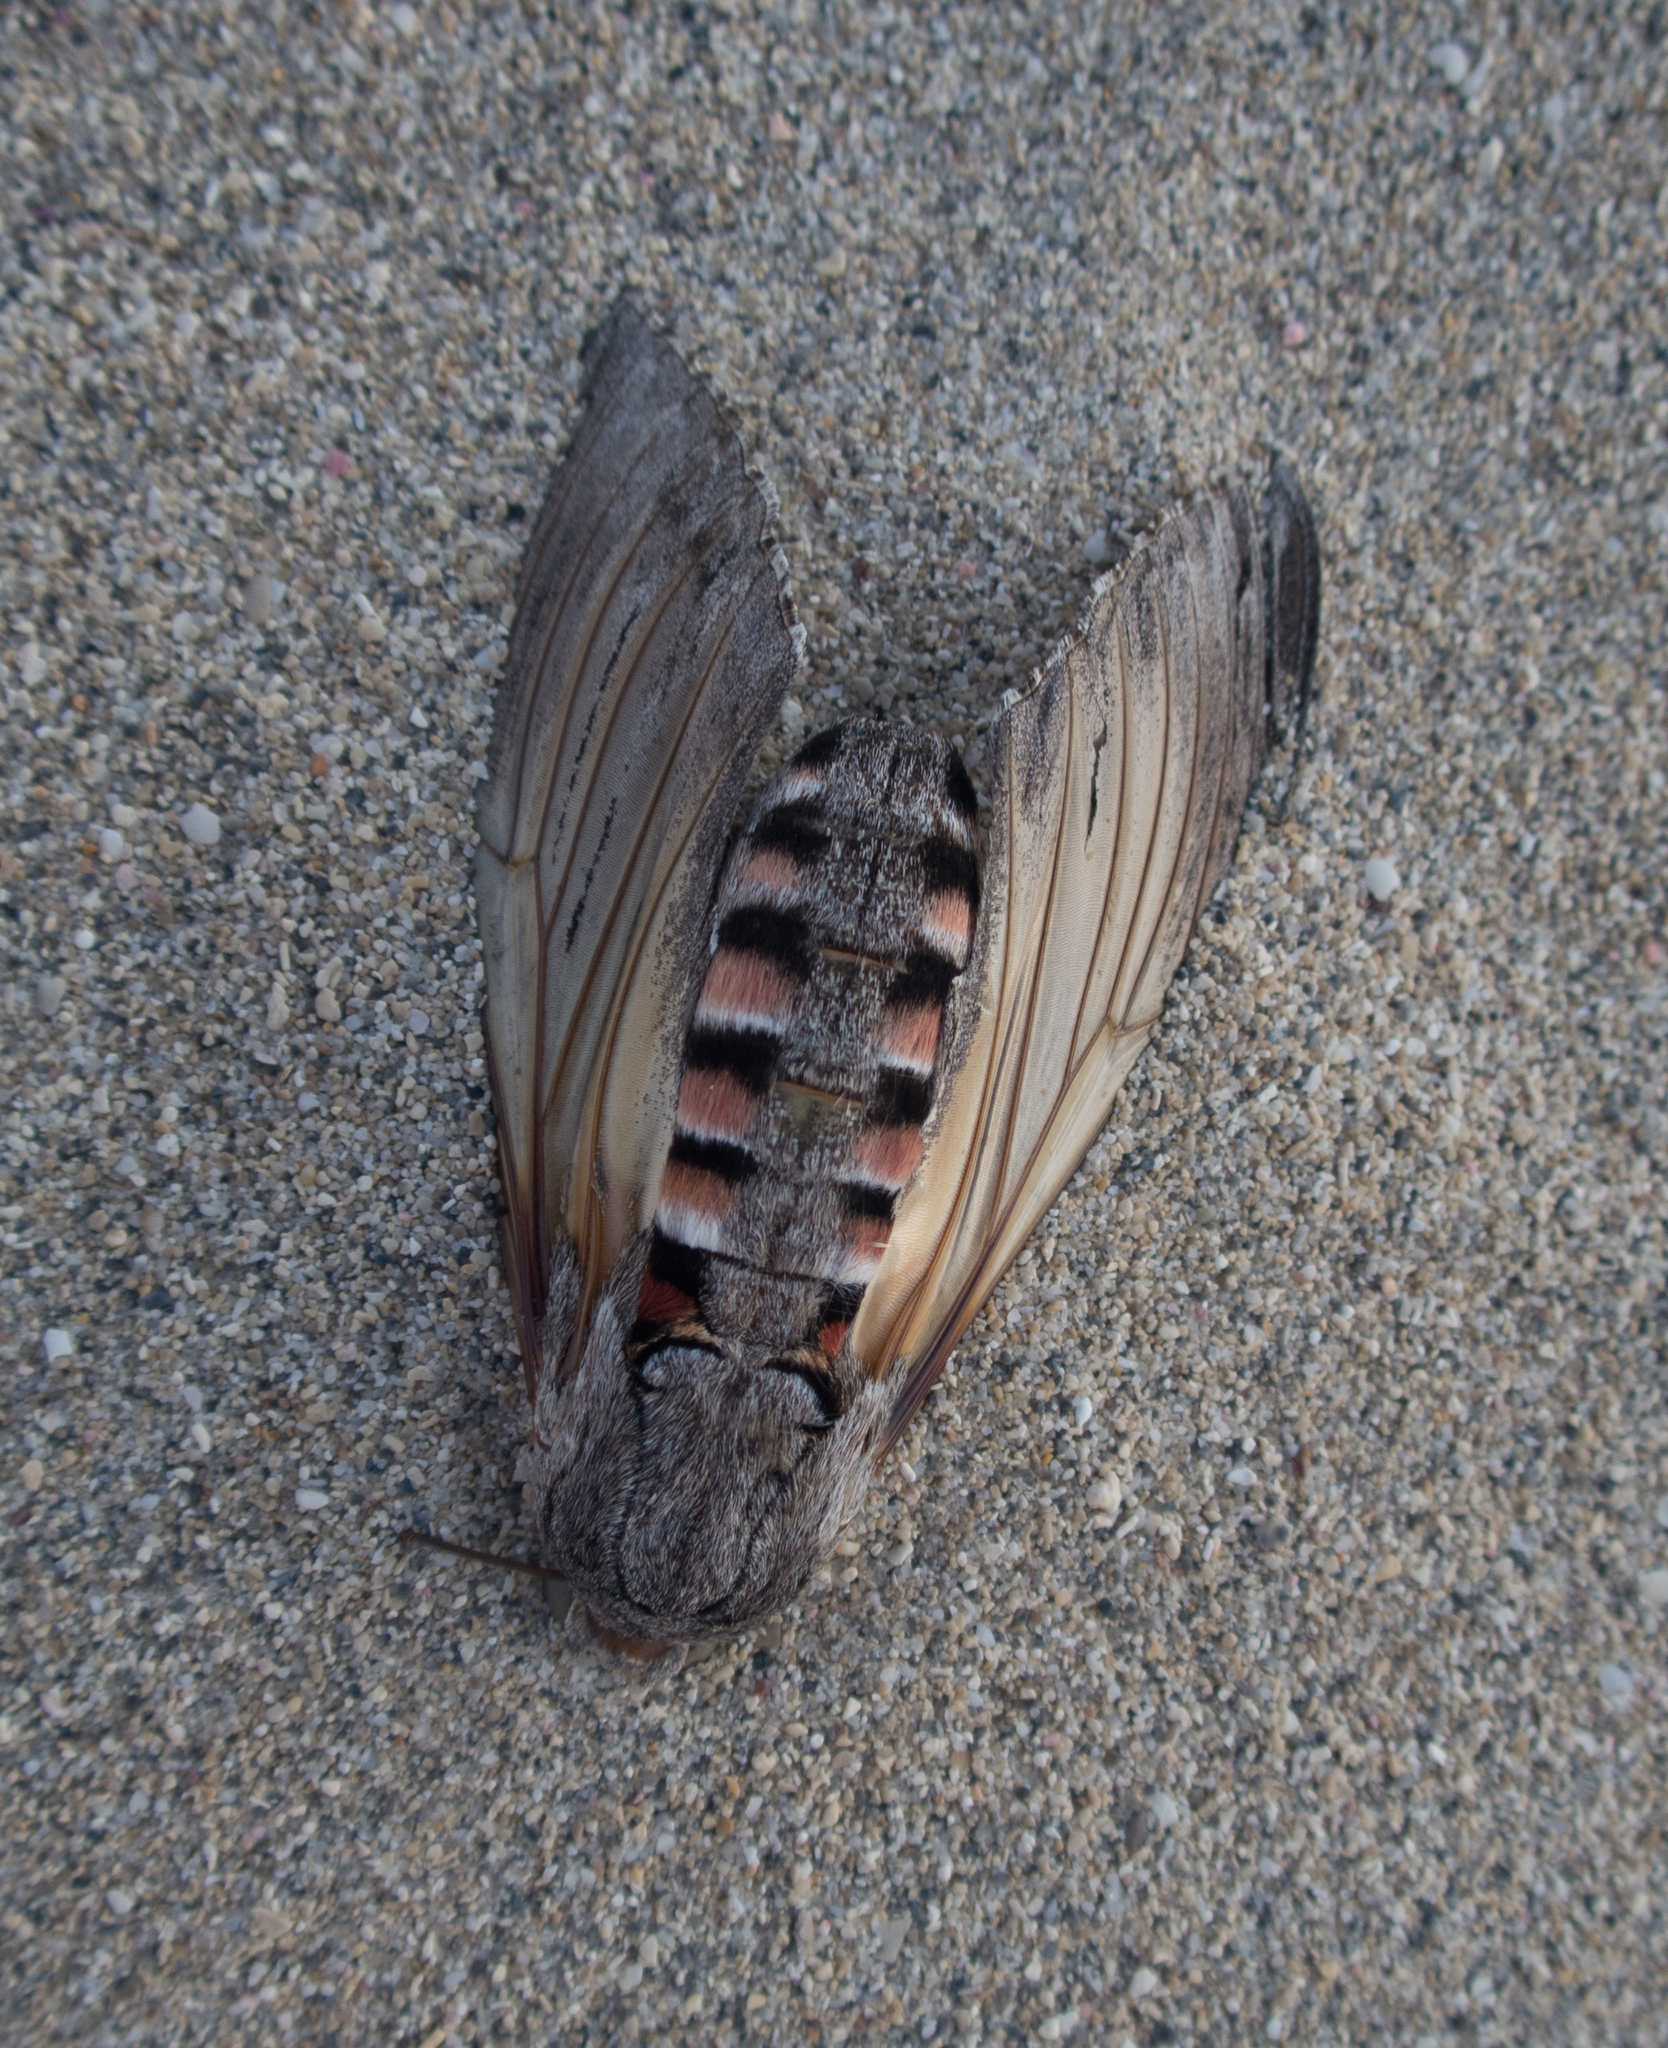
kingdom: Animalia
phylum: Arthropoda
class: Insecta
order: Lepidoptera
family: Sphingidae
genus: Agrius
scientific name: Agrius convolvuli
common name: Convolvulus hawkmoth
